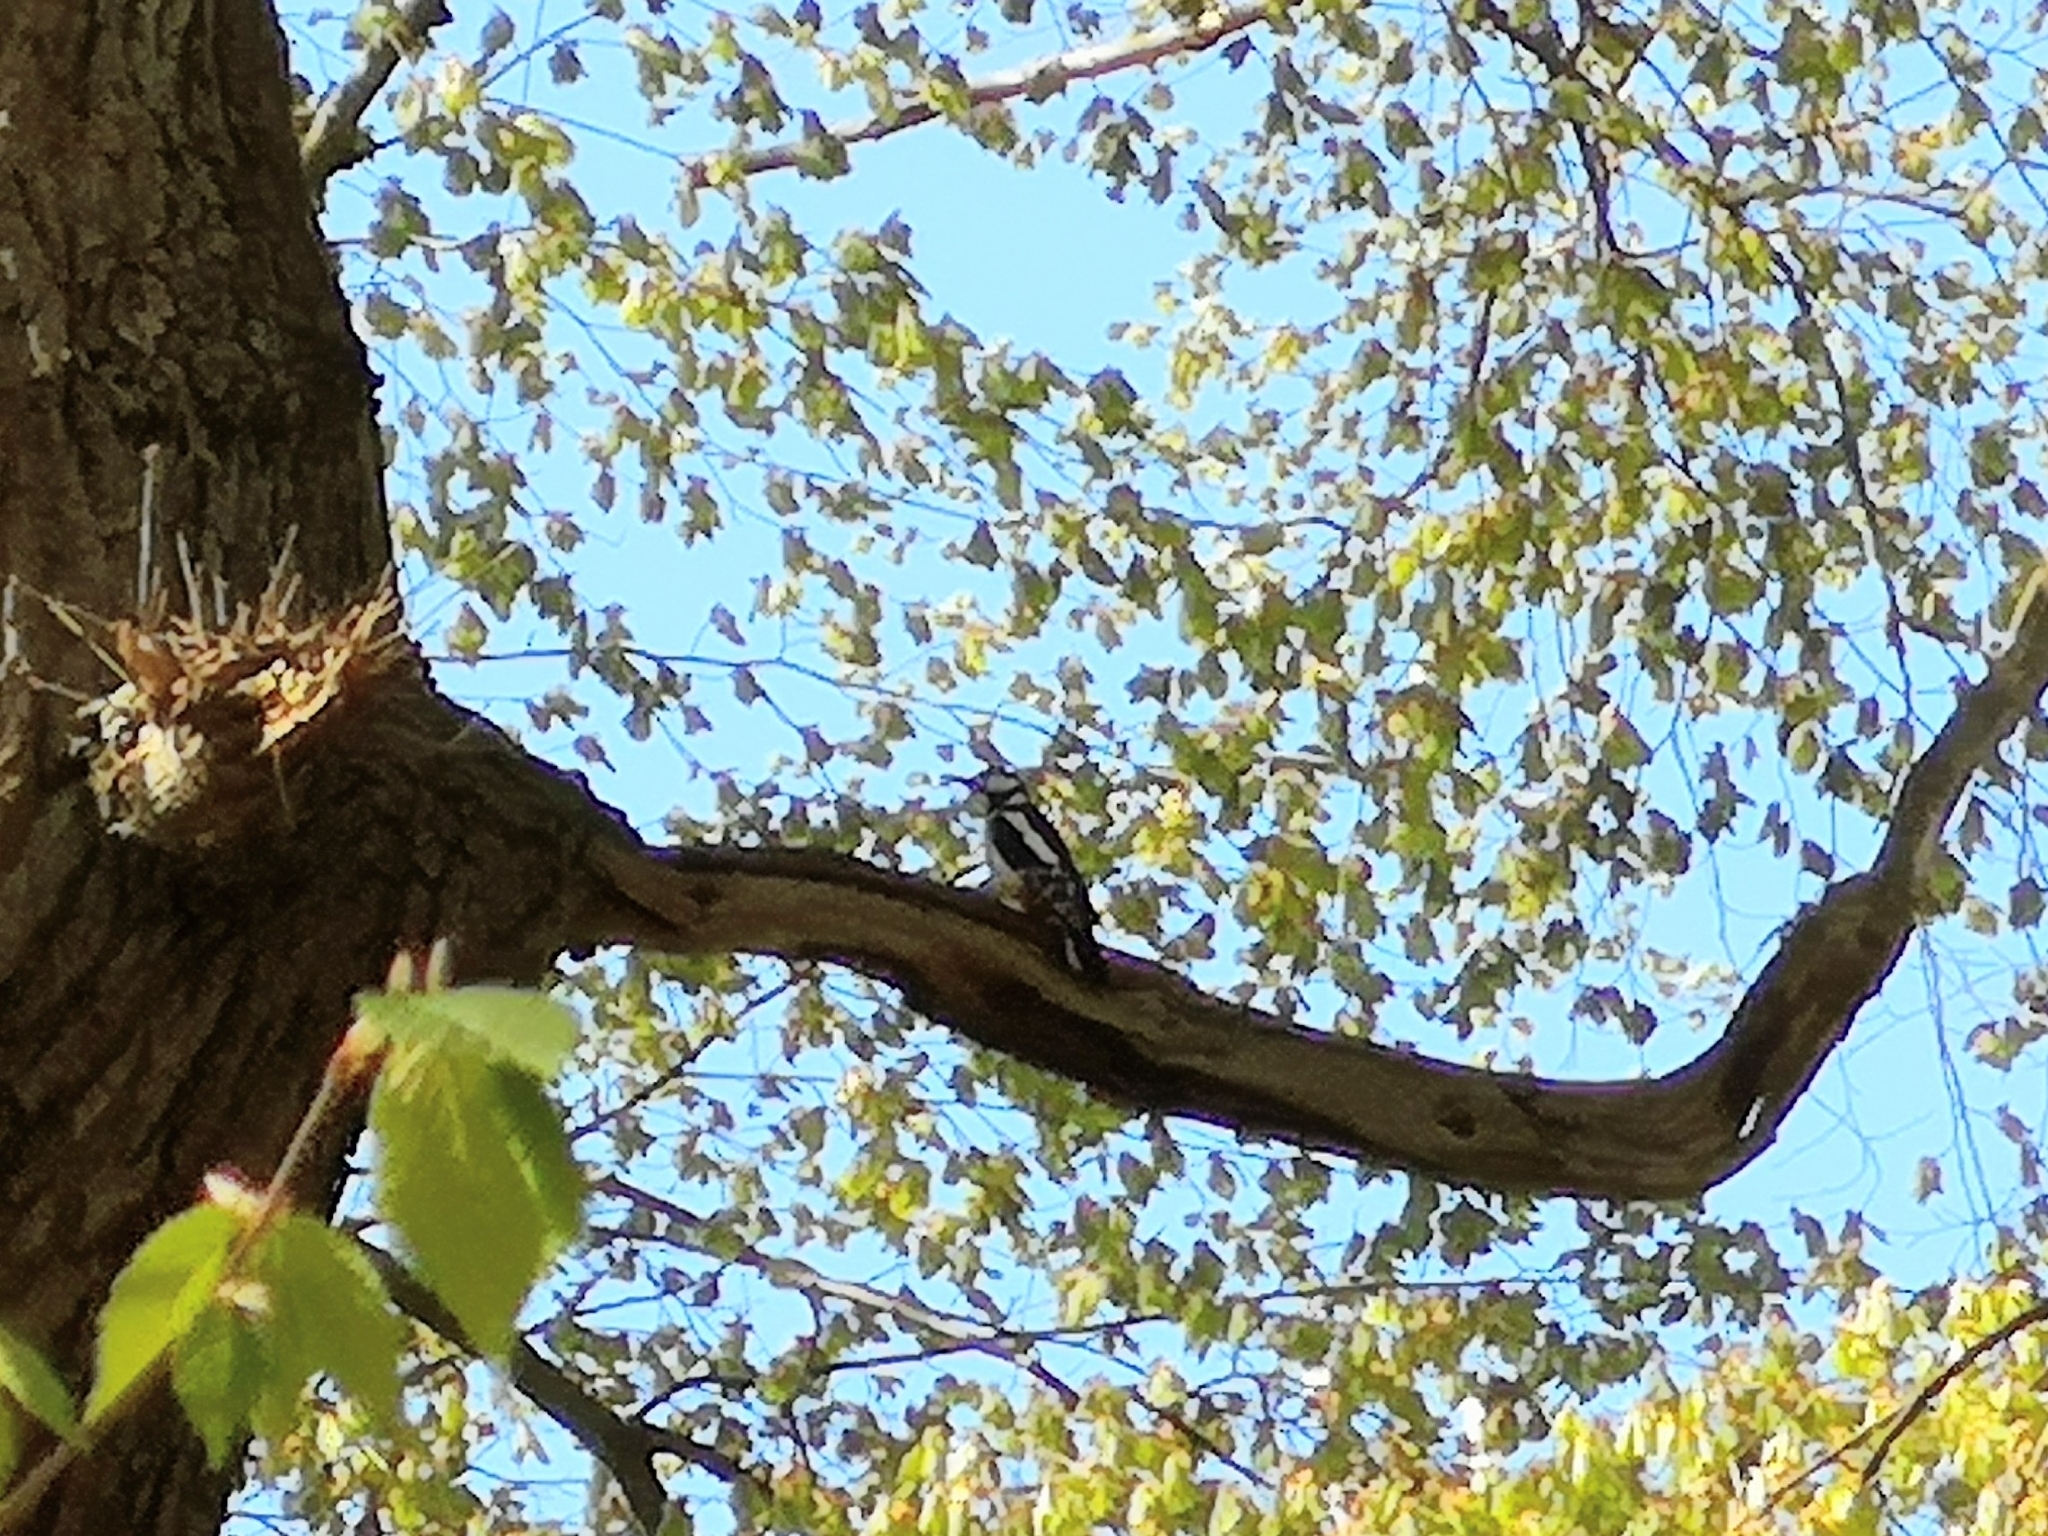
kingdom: Animalia
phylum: Chordata
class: Aves
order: Piciformes
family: Picidae
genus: Dendrocopos
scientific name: Dendrocopos major
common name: Great spotted woodpecker
